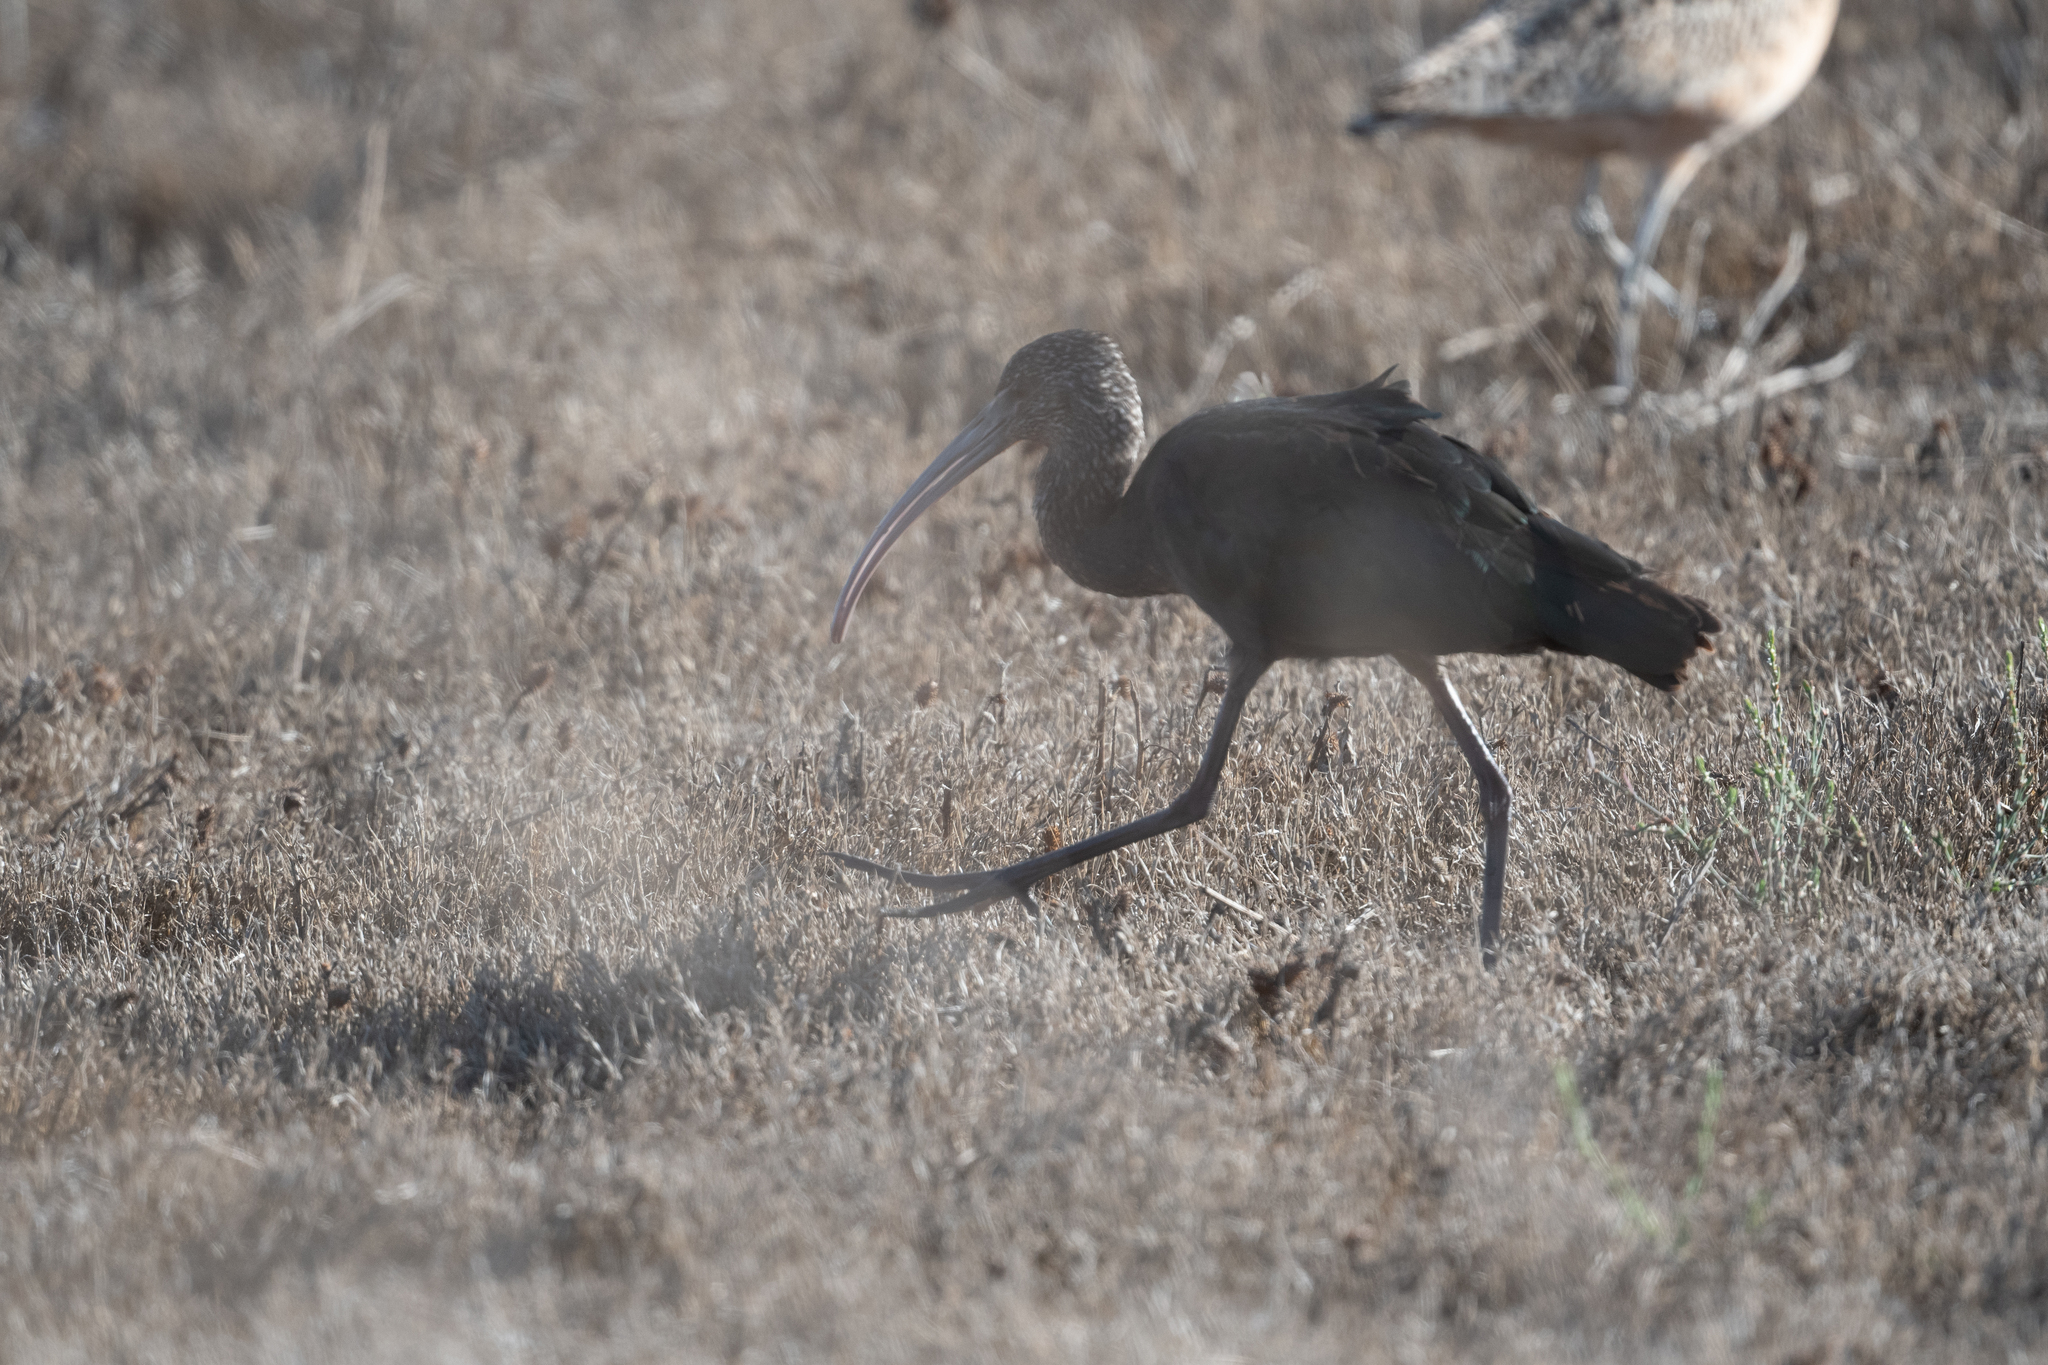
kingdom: Animalia
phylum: Chordata
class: Aves
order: Pelecaniformes
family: Threskiornithidae
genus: Plegadis
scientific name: Plegadis chihi
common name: White-faced ibis
